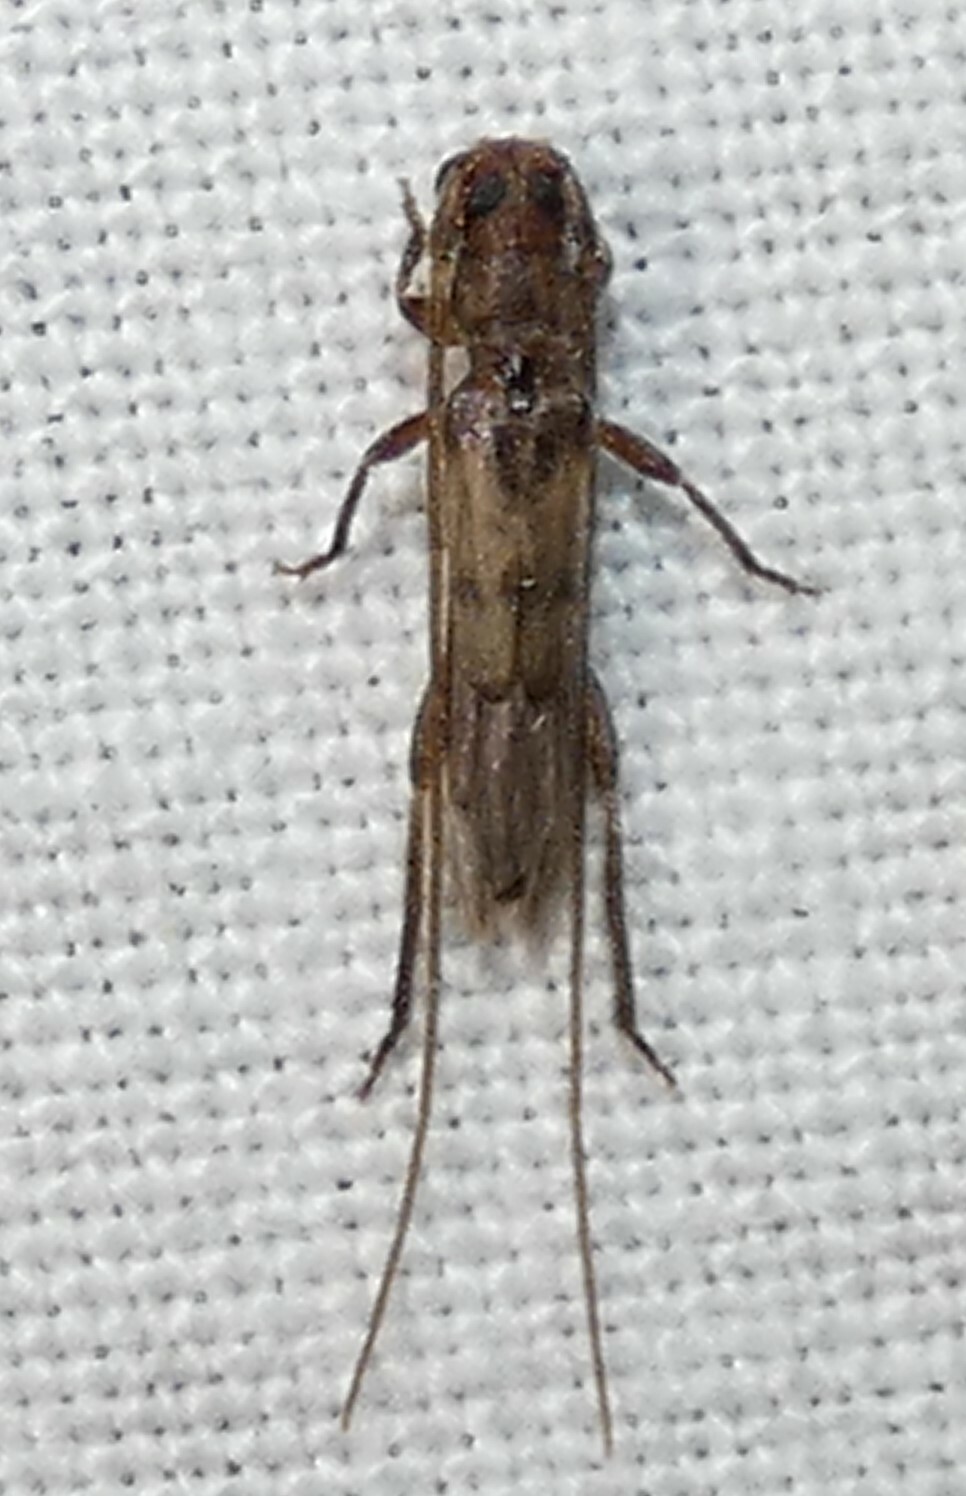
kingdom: Animalia
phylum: Arthropoda
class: Insecta
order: Coleoptera
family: Cerambycidae
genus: Methia
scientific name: Methia necydalea
